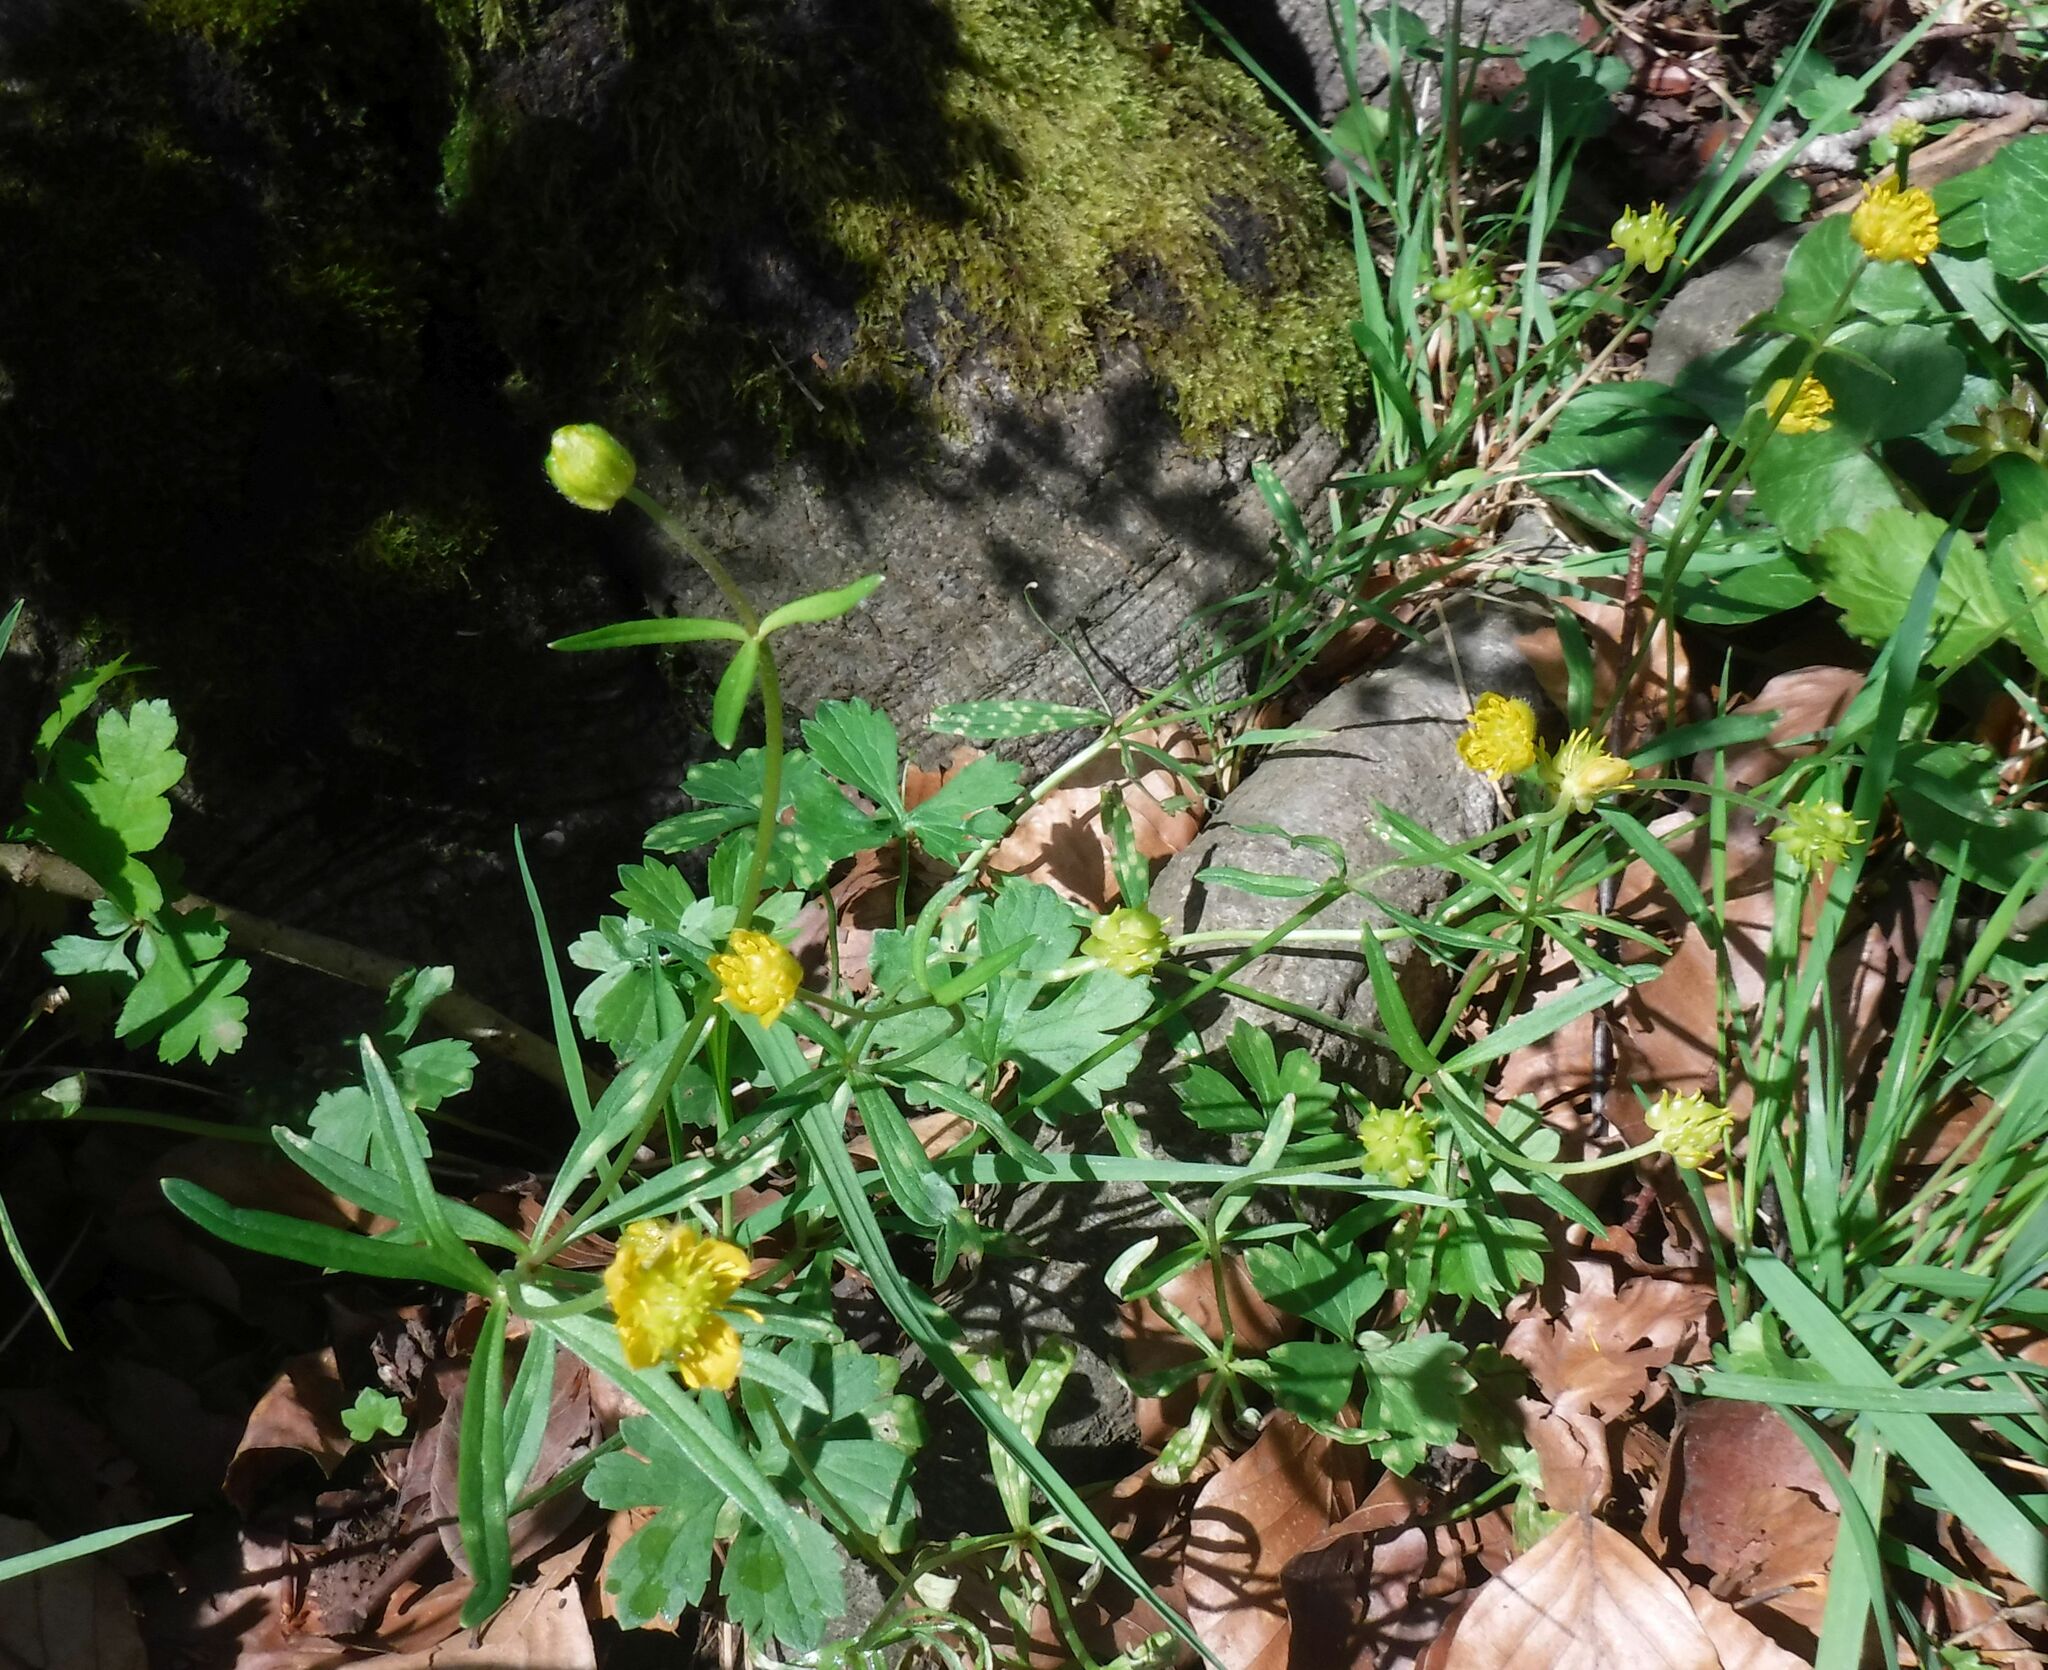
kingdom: Plantae
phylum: Tracheophyta
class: Magnoliopsida
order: Ranunculales
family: Ranunculaceae
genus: Ranunculus
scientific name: Ranunculus auricomus
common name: Goldilocks buttercup
